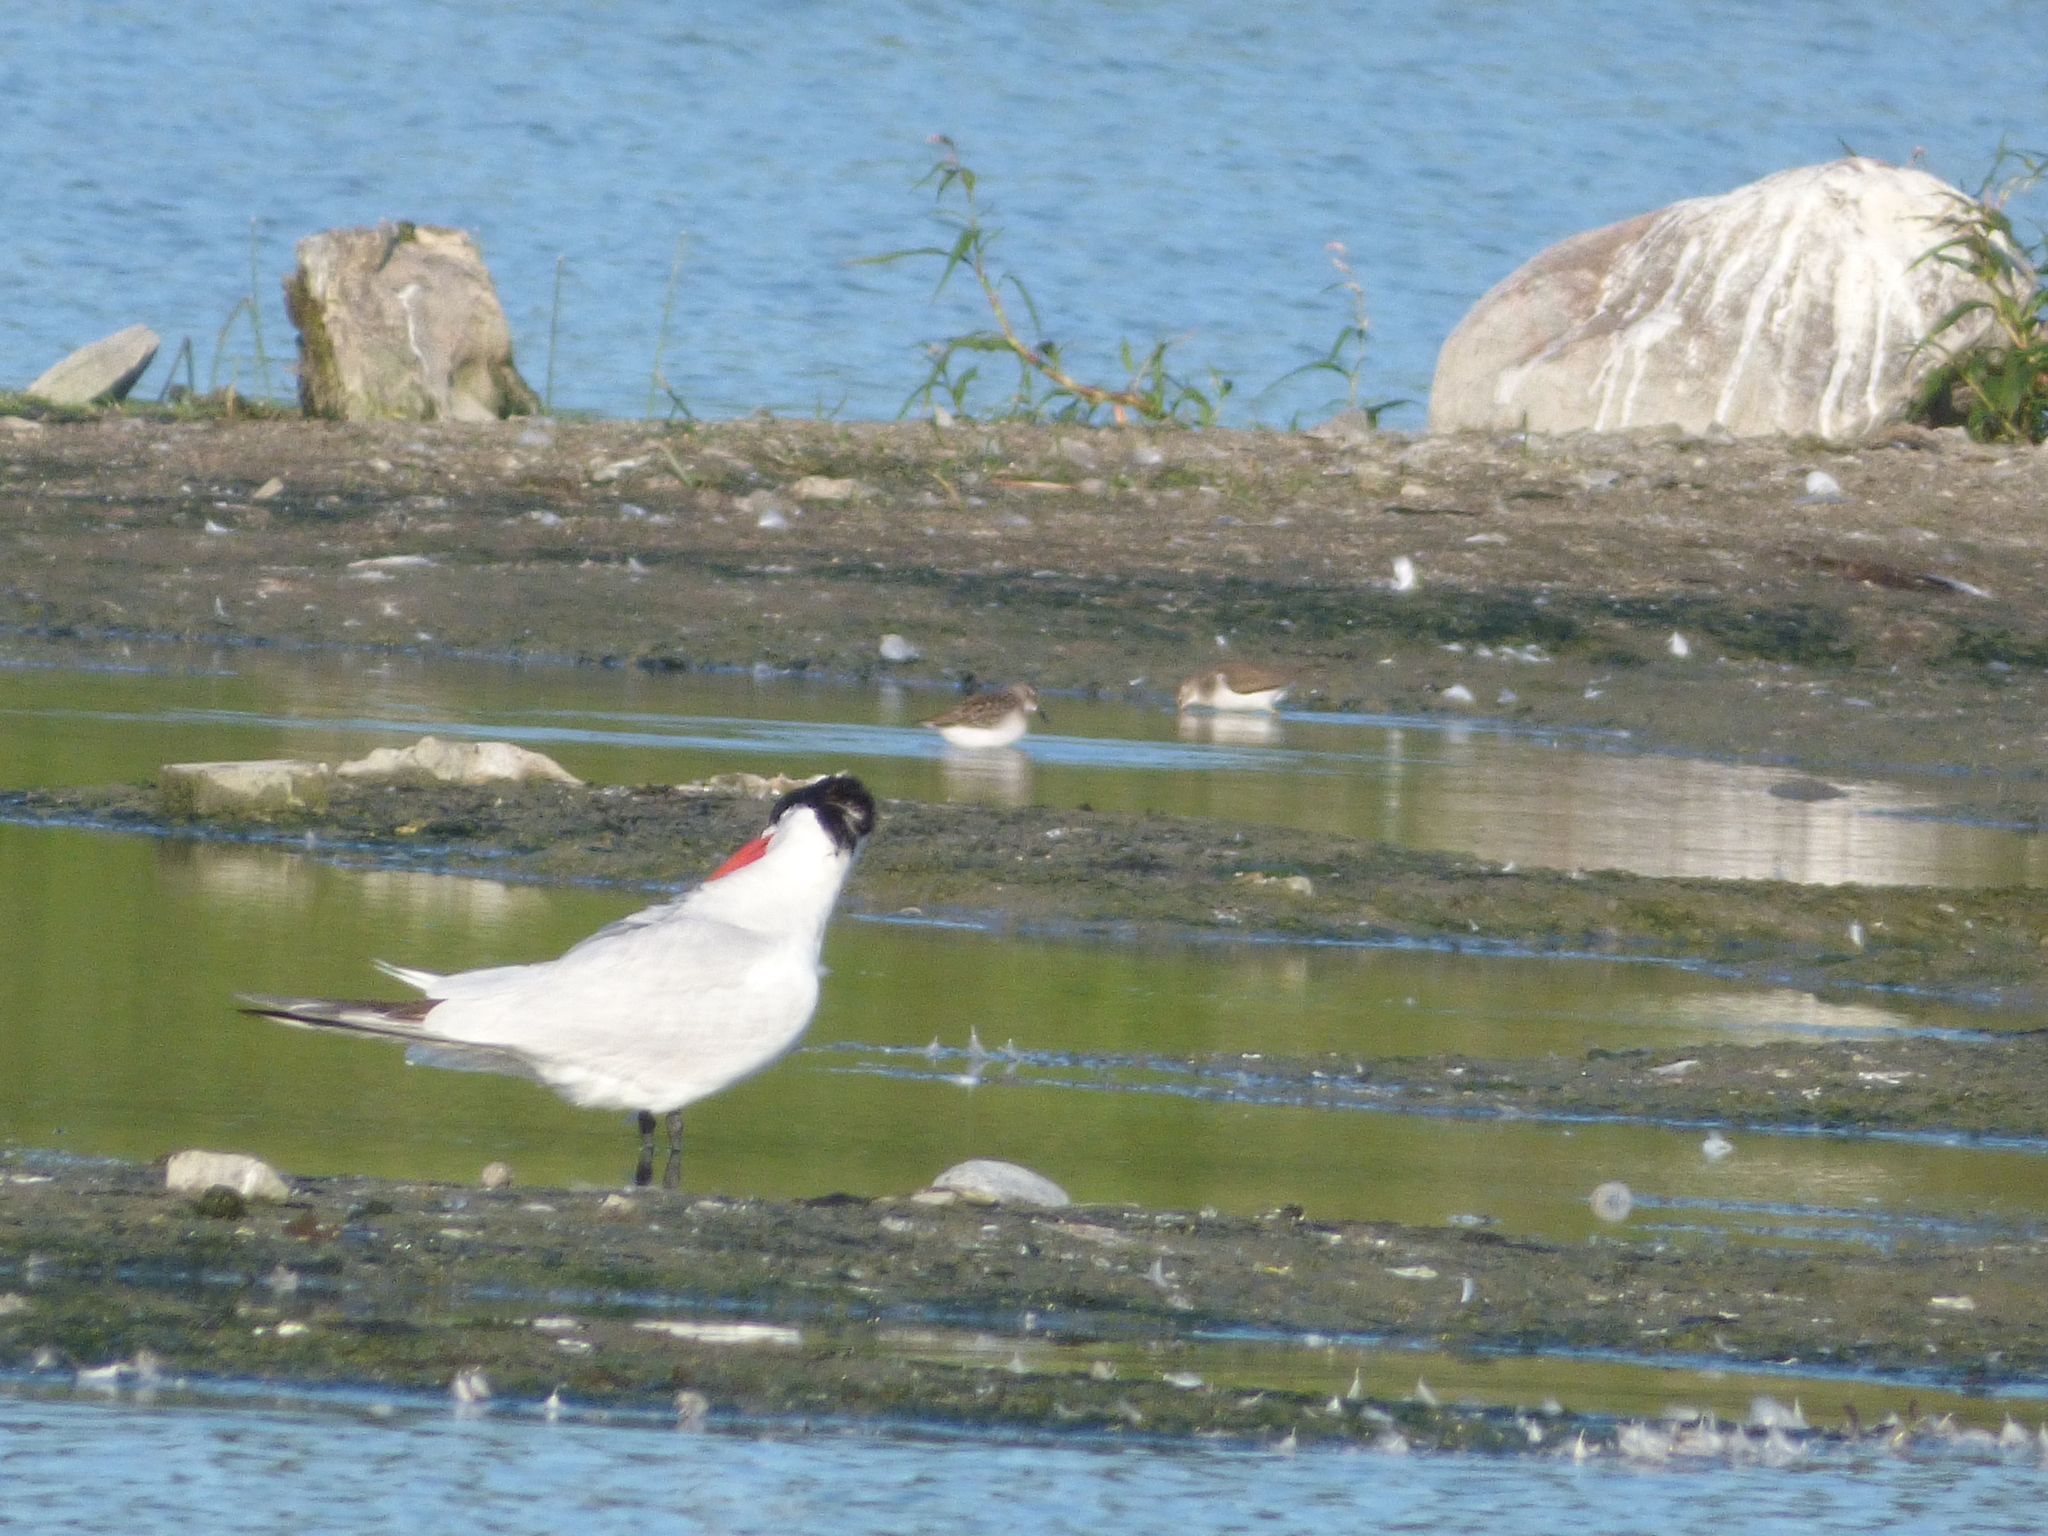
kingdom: Animalia
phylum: Chordata
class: Aves
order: Charadriiformes
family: Scolopacidae
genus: Calidris
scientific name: Calidris pusilla
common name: Semipalmated sandpiper
